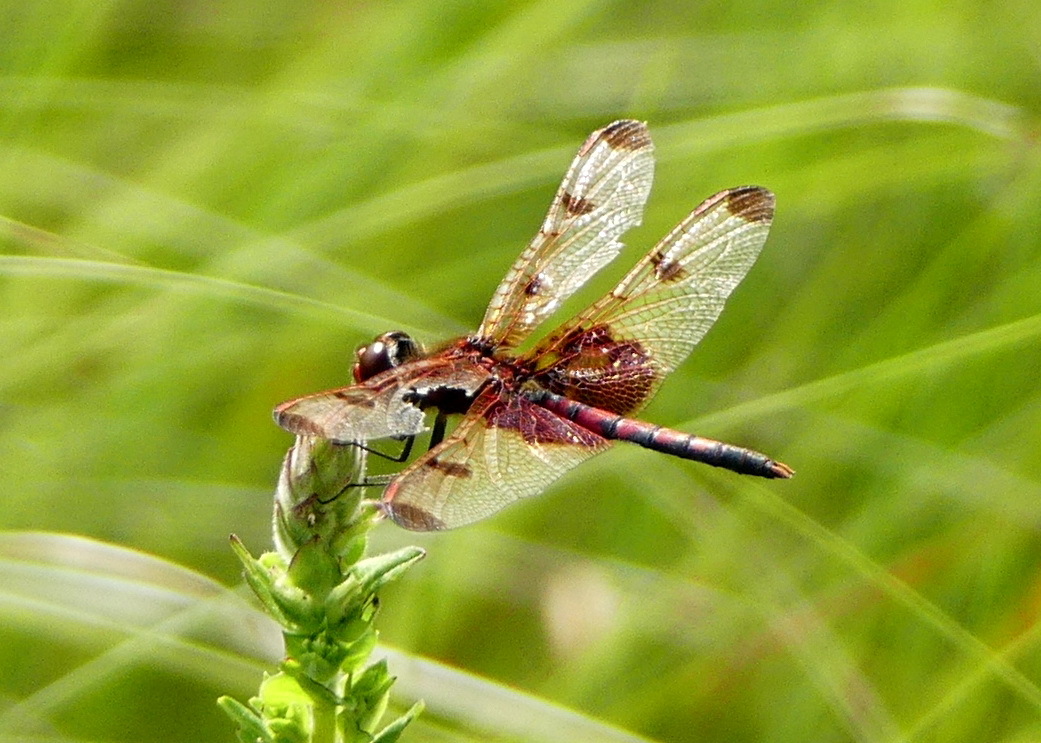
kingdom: Animalia
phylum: Arthropoda
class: Insecta
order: Odonata
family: Libellulidae
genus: Celithemis
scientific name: Celithemis elisa
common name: Calico pennant
